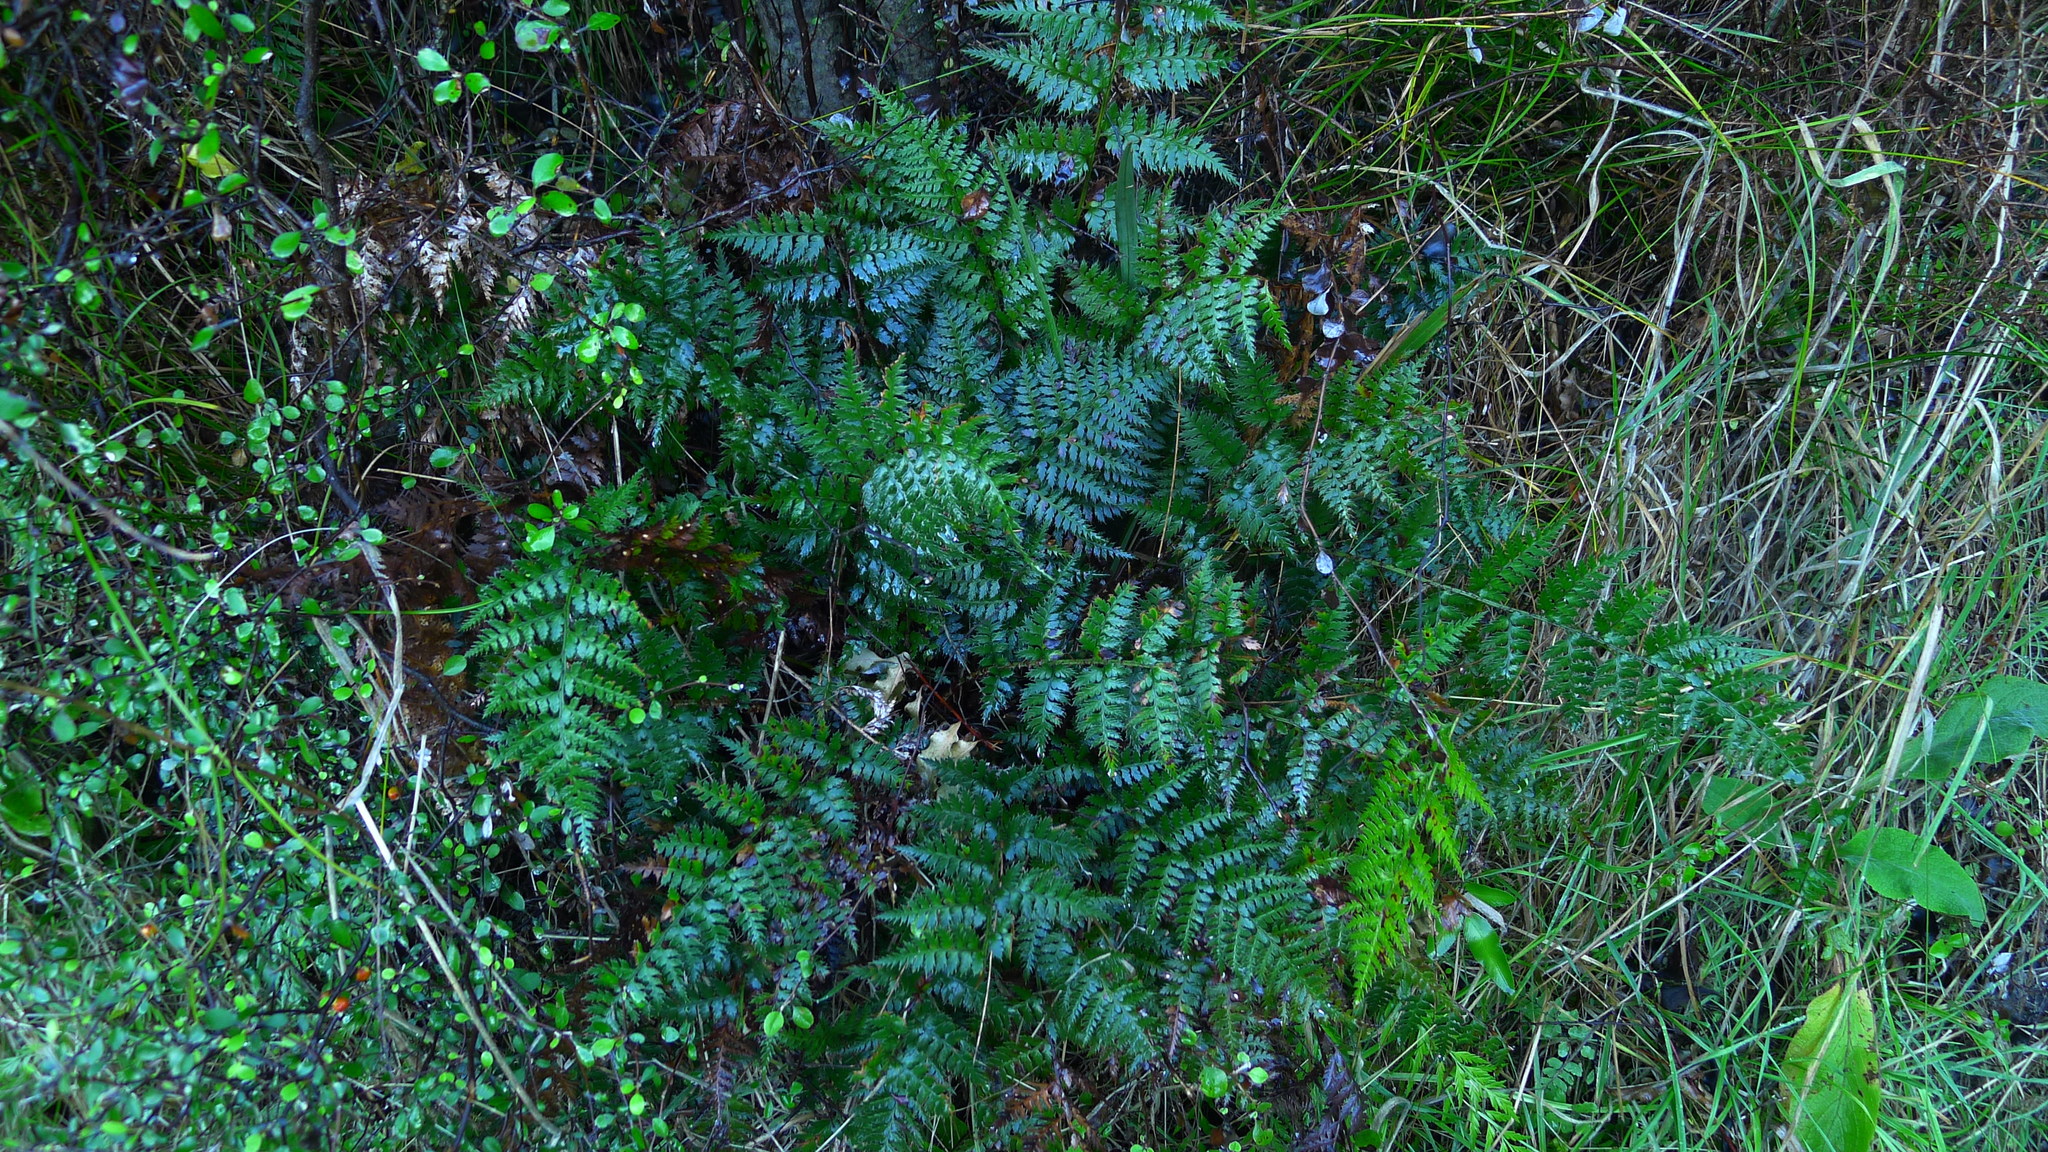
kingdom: Plantae
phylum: Tracheophyta
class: Polypodiopsida
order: Polypodiales
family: Dryopteridaceae
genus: Polystichum
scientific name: Polystichum oculatum
